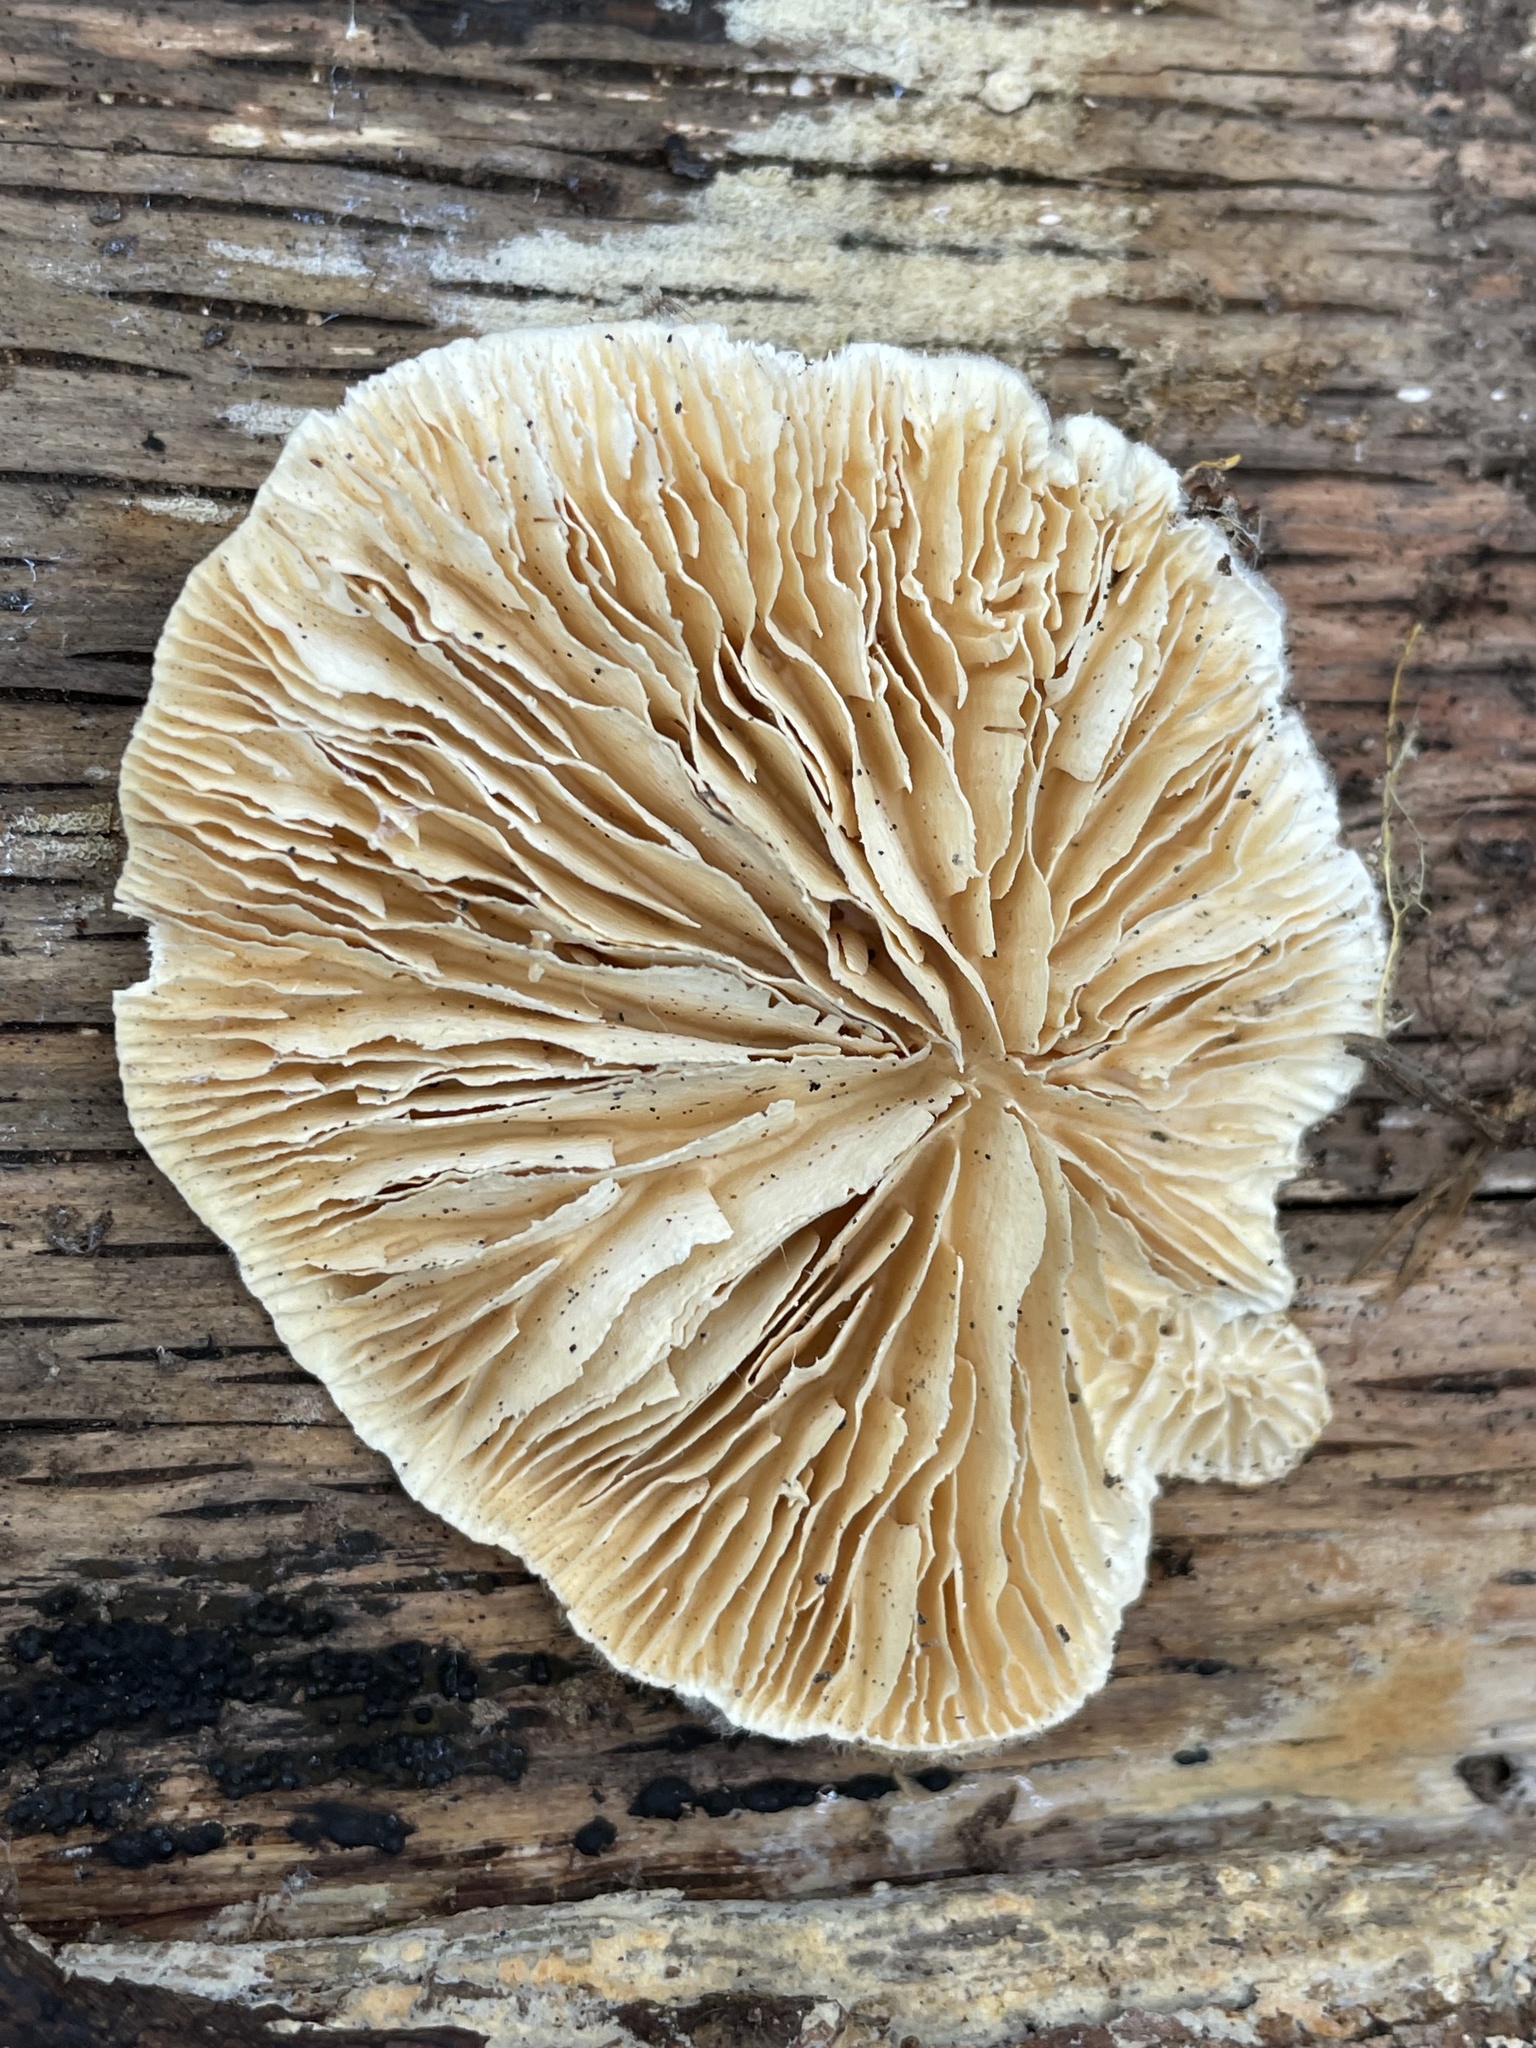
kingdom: Fungi
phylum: Basidiomycota
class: Agaricomycetes
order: Polyporales
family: Polyporaceae
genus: Lenzites
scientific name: Lenzites betulinus
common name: Birch mazegill
